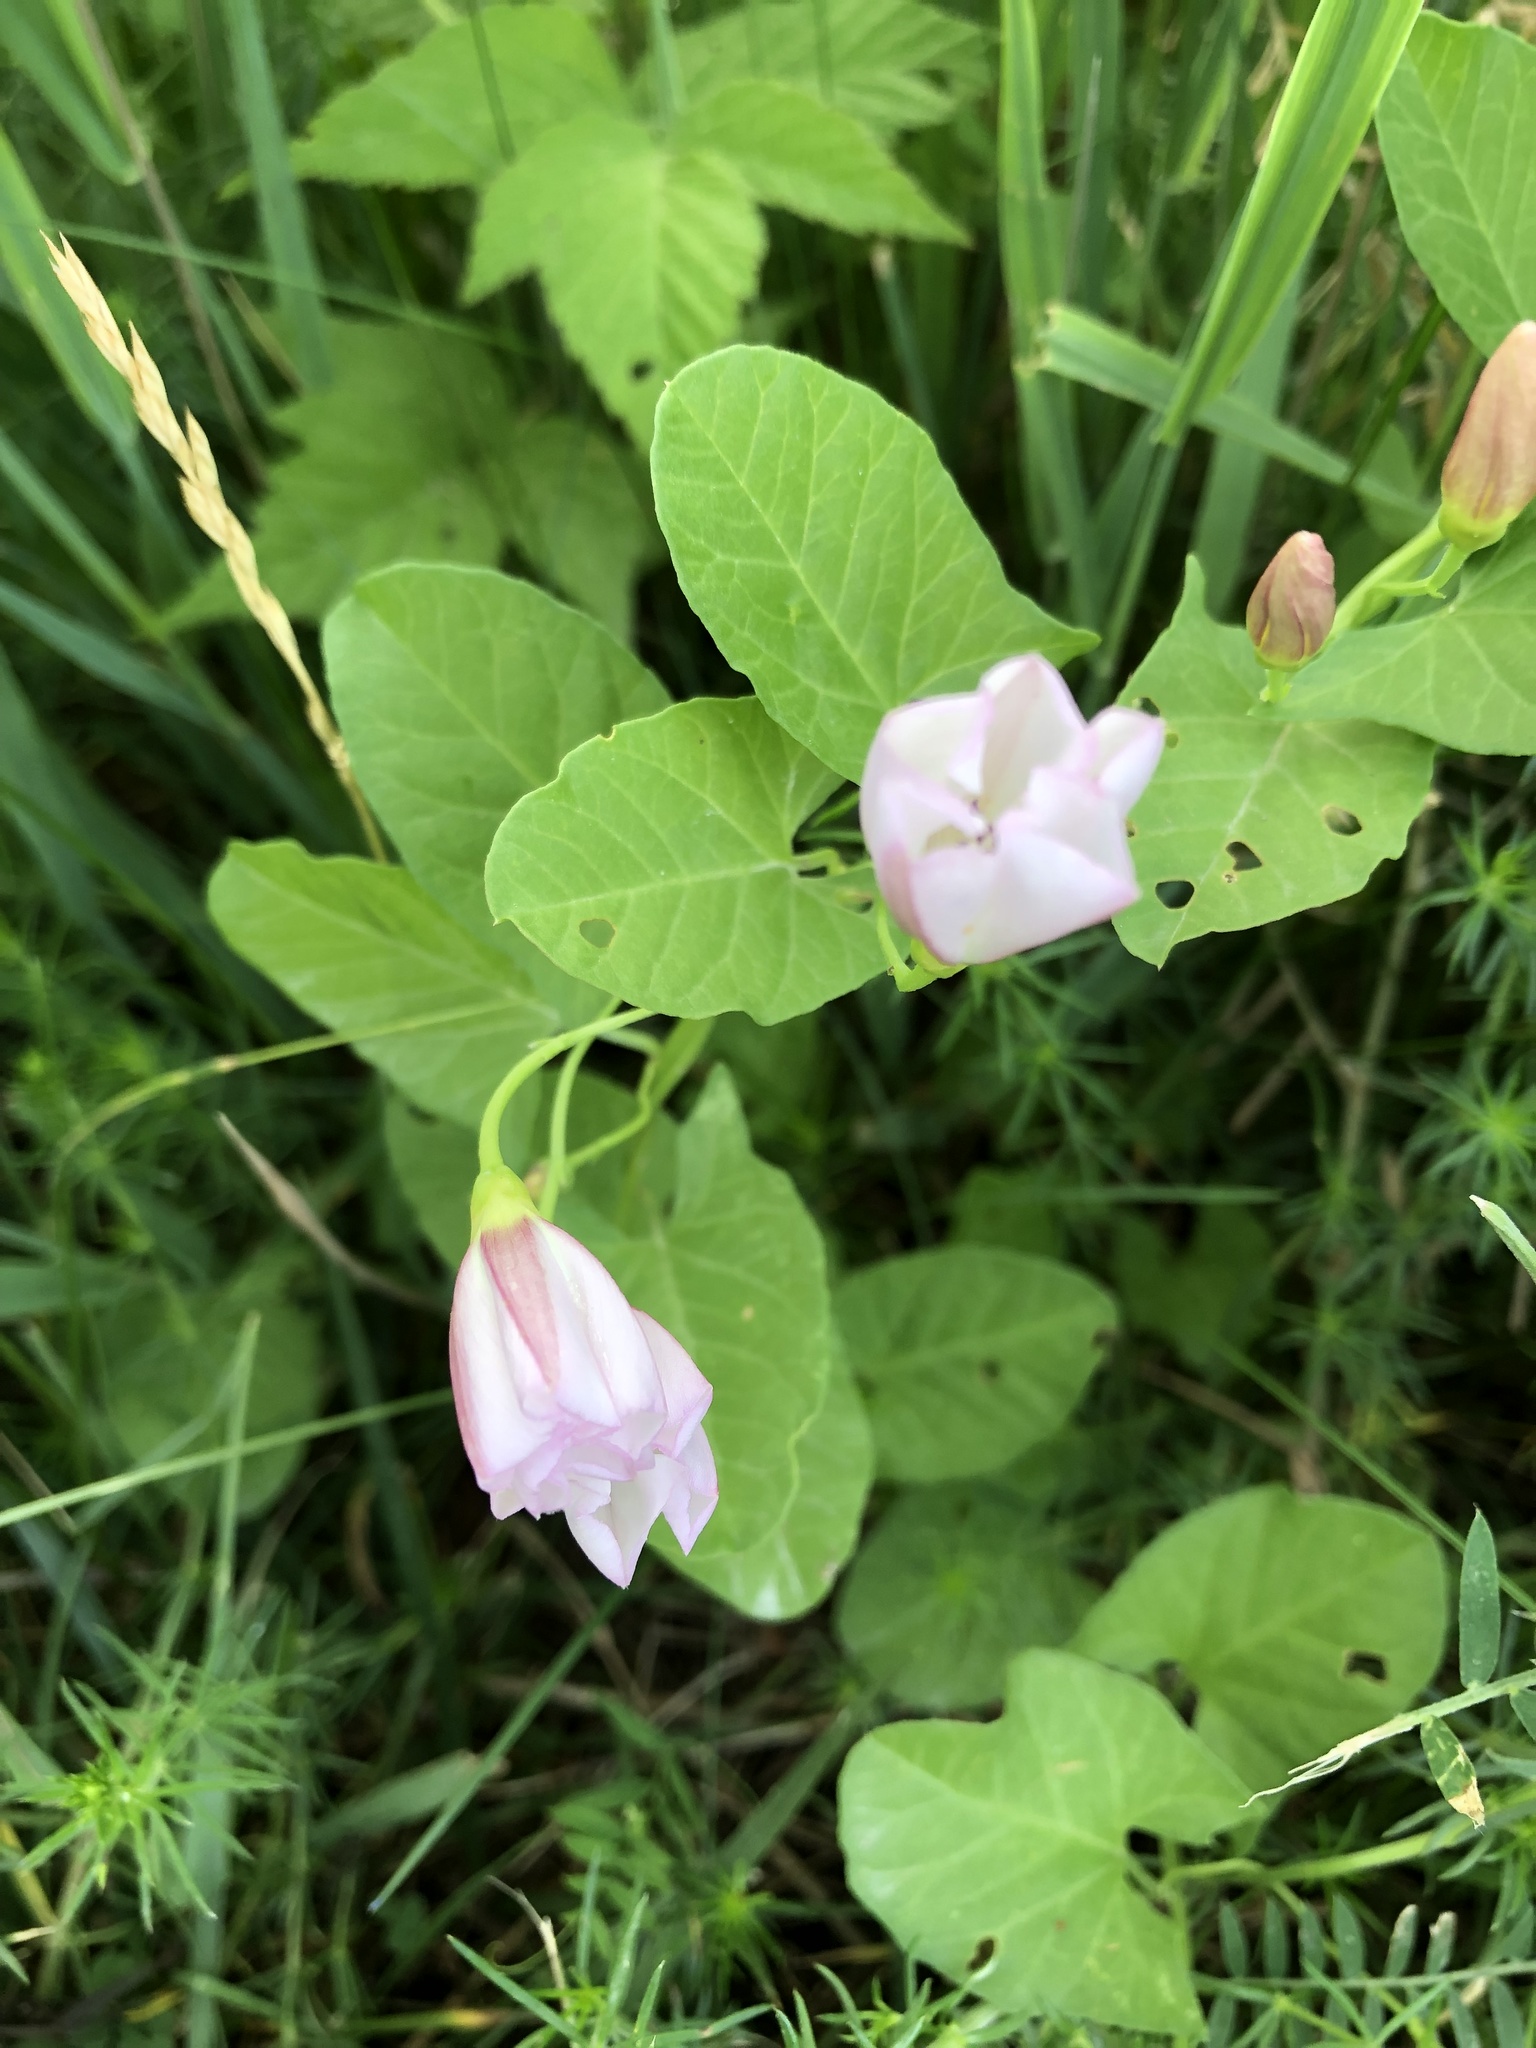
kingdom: Plantae
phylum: Tracheophyta
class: Magnoliopsida
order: Solanales
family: Convolvulaceae
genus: Convolvulus
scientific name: Convolvulus arvensis
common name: Field bindweed
